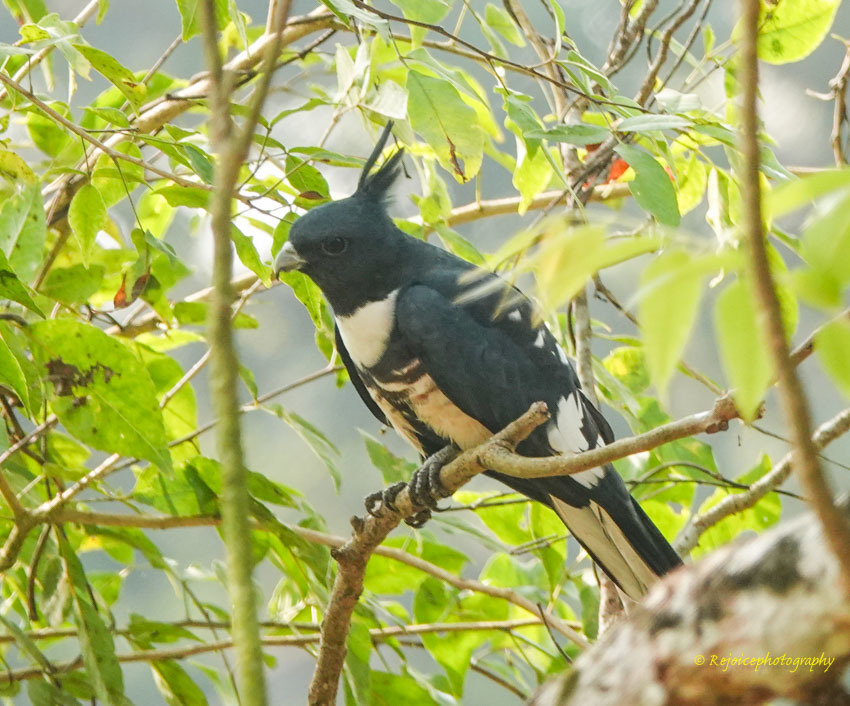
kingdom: Animalia
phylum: Chordata
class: Aves
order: Accipitriformes
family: Accipitridae
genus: Aviceda
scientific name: Aviceda leuphotes
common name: Black baza
